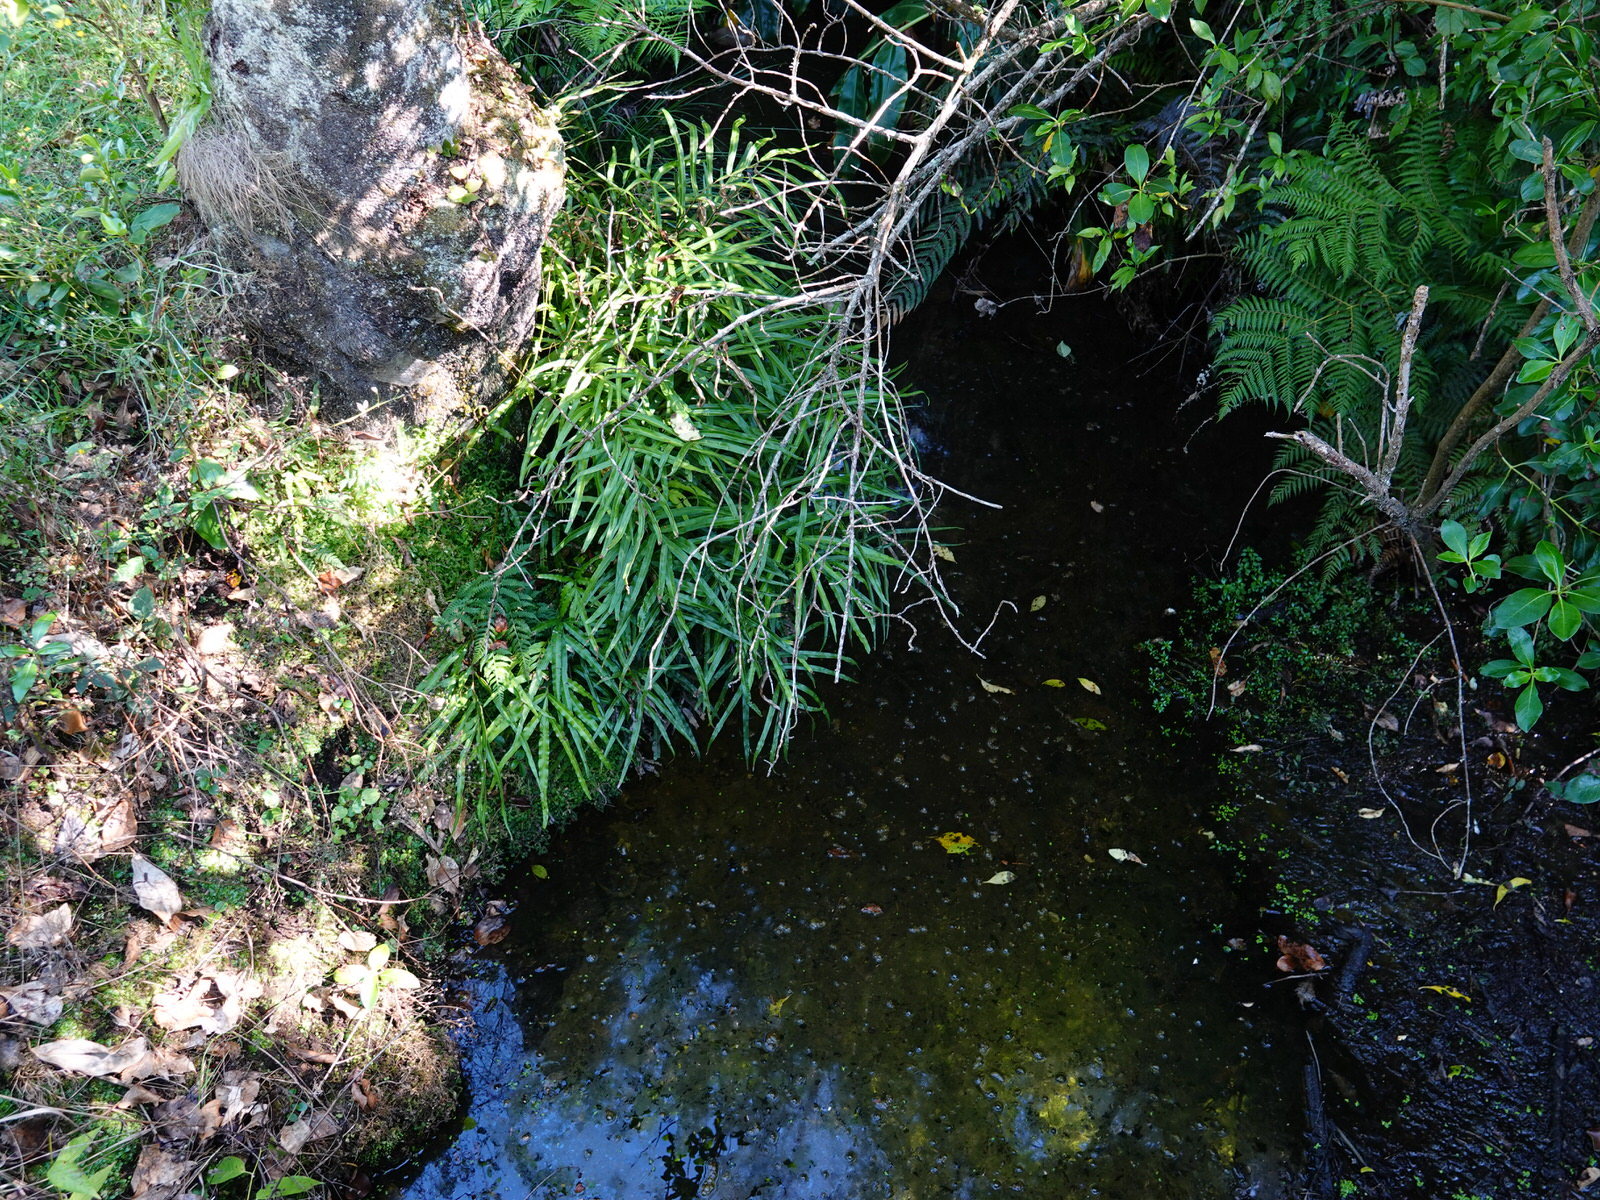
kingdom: Plantae
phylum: Tracheophyta
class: Polypodiopsida
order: Polypodiales
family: Pteridaceae
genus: Pteris
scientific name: Pteris cretica
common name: Ribbon fern
